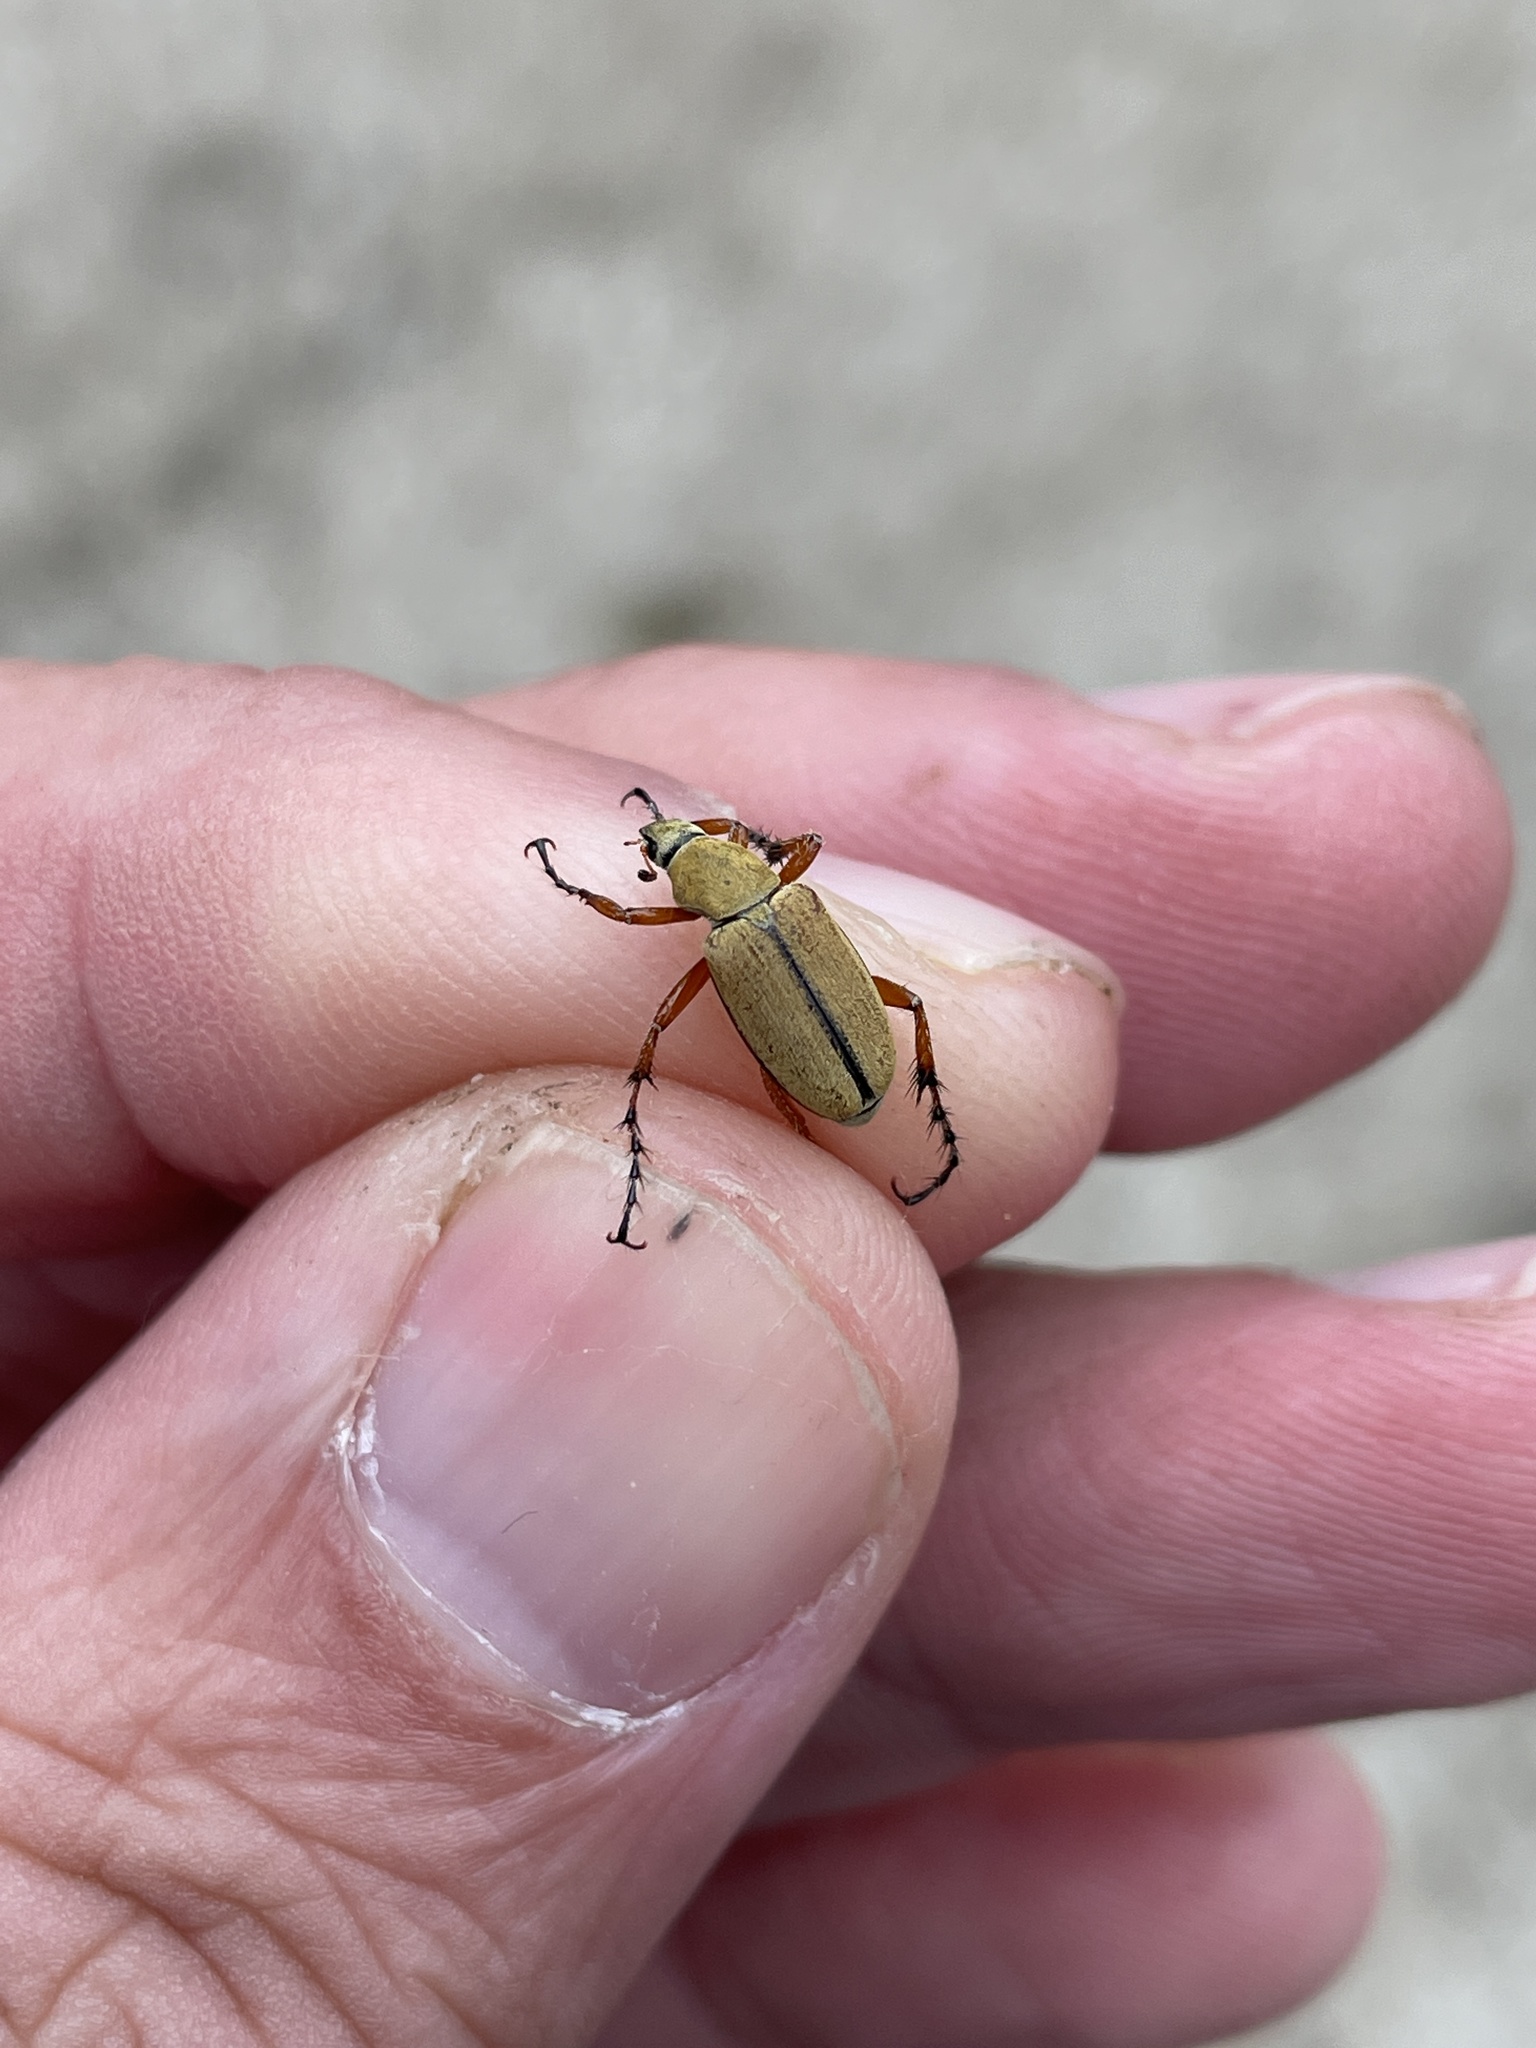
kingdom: Animalia
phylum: Arthropoda
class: Insecta
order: Coleoptera
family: Scarabaeidae
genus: Macrodactylus
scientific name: Macrodactylus subspinosus
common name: American rose chafer
